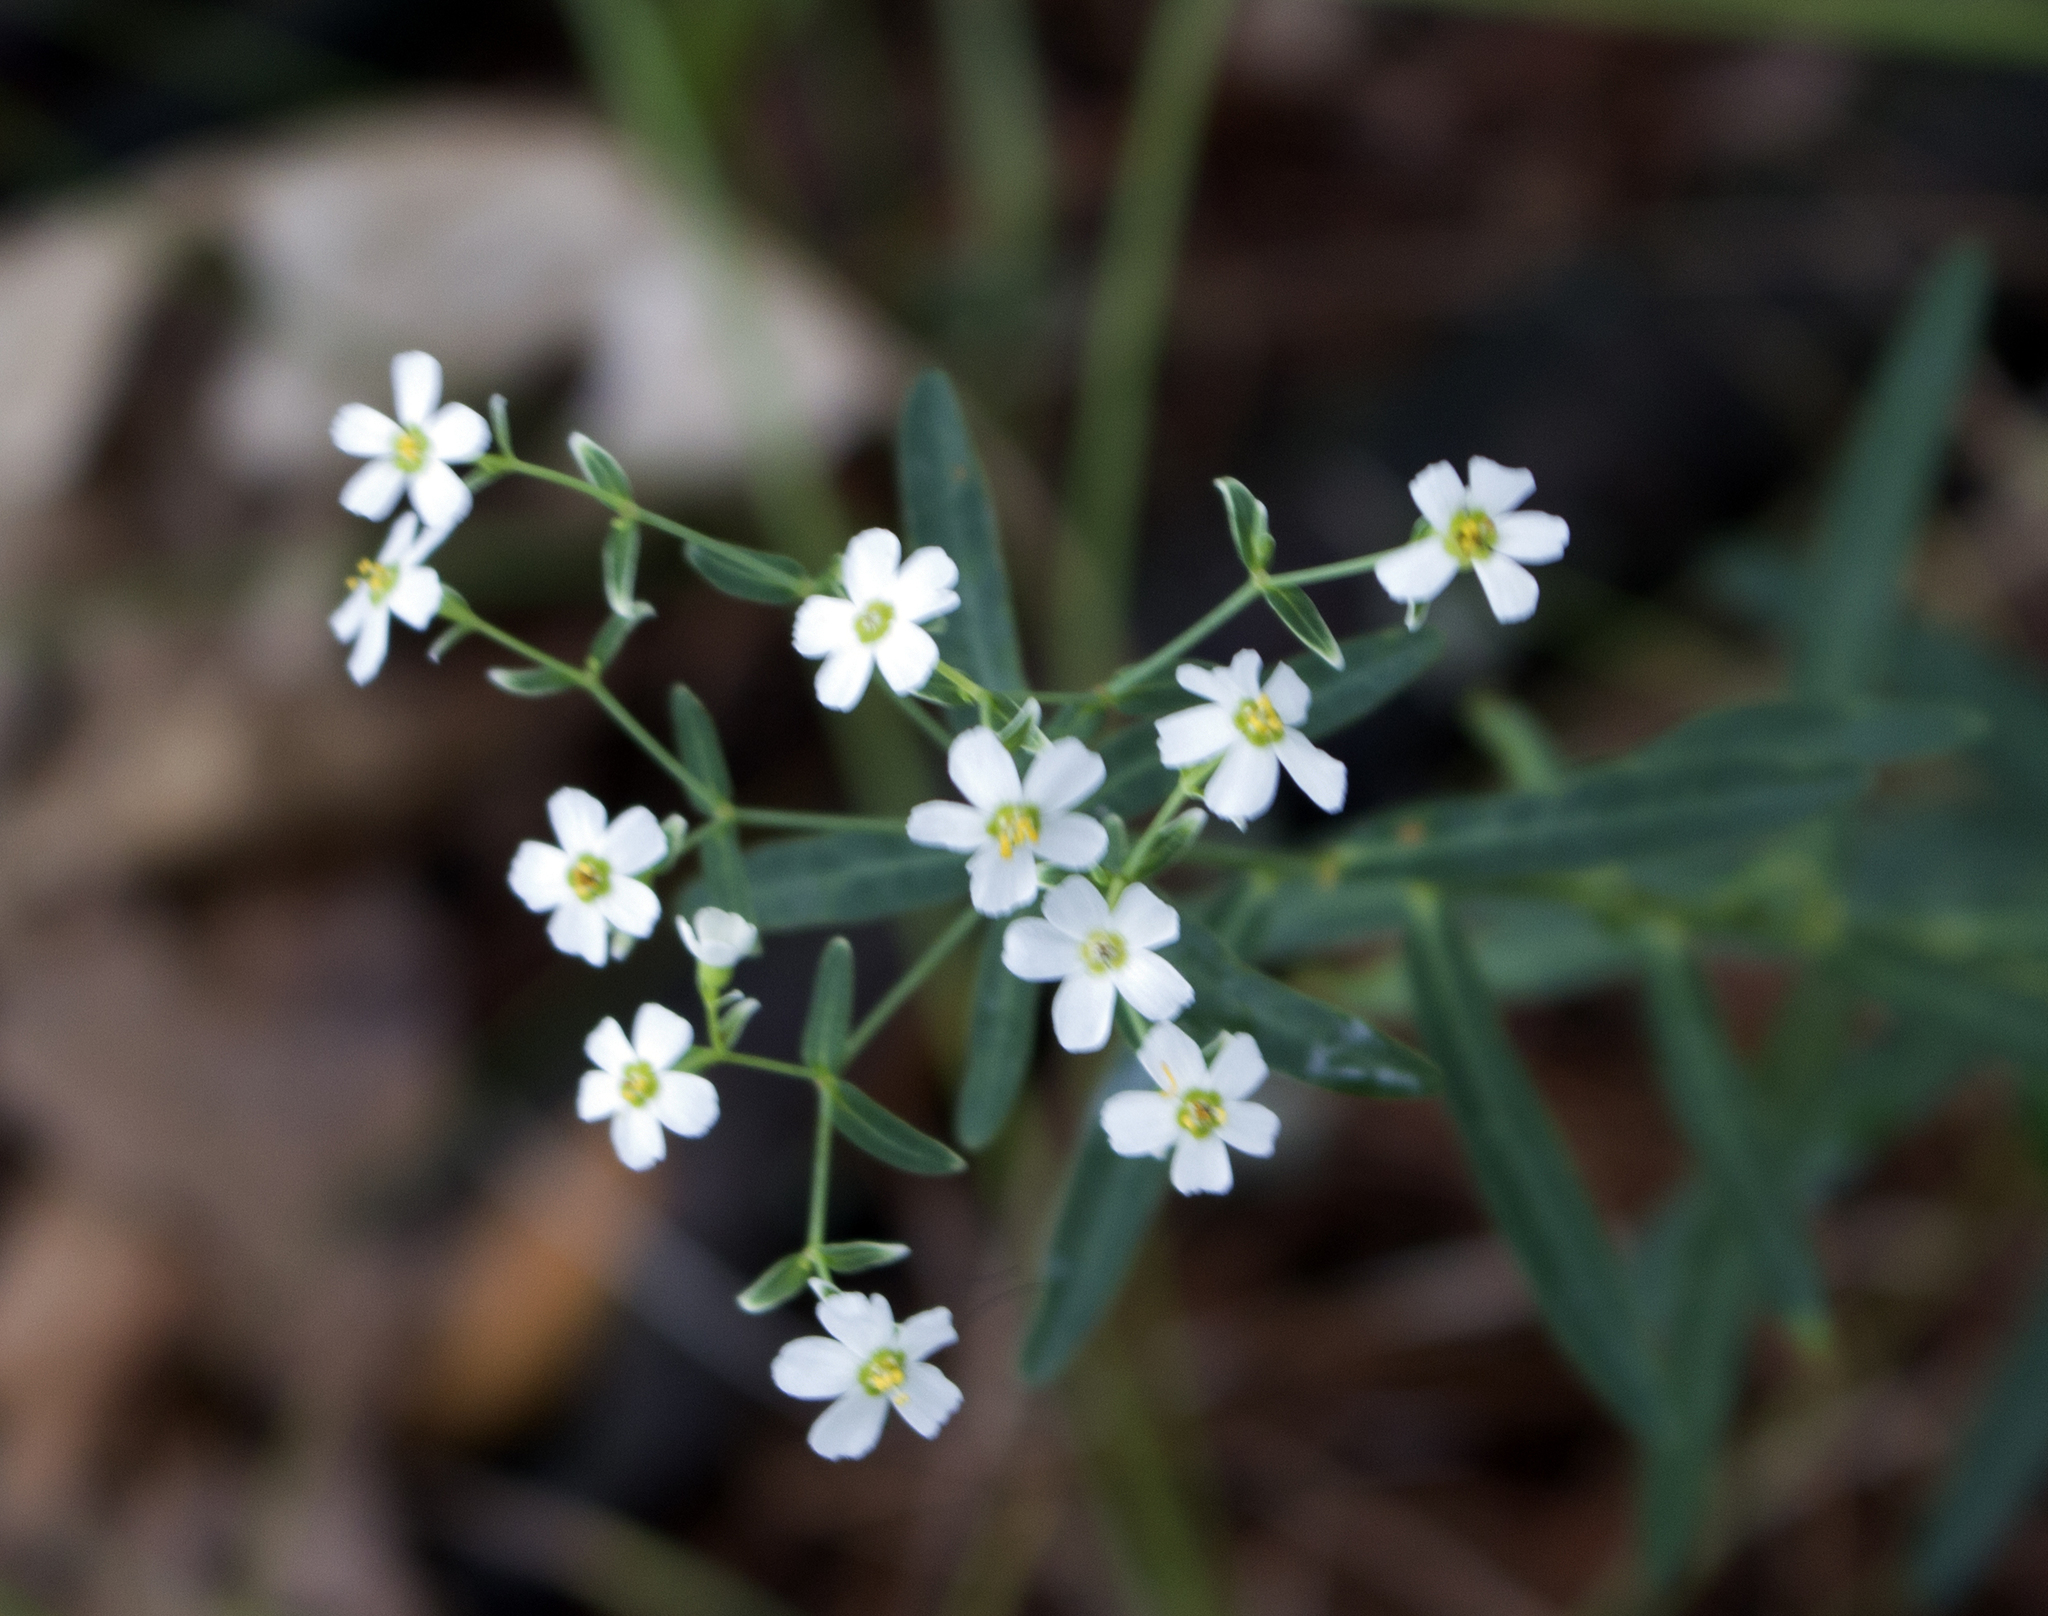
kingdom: Plantae
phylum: Tracheophyta
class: Magnoliopsida
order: Malpighiales
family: Euphorbiaceae
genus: Euphorbia
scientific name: Euphorbia corollata
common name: Flowering spurge
